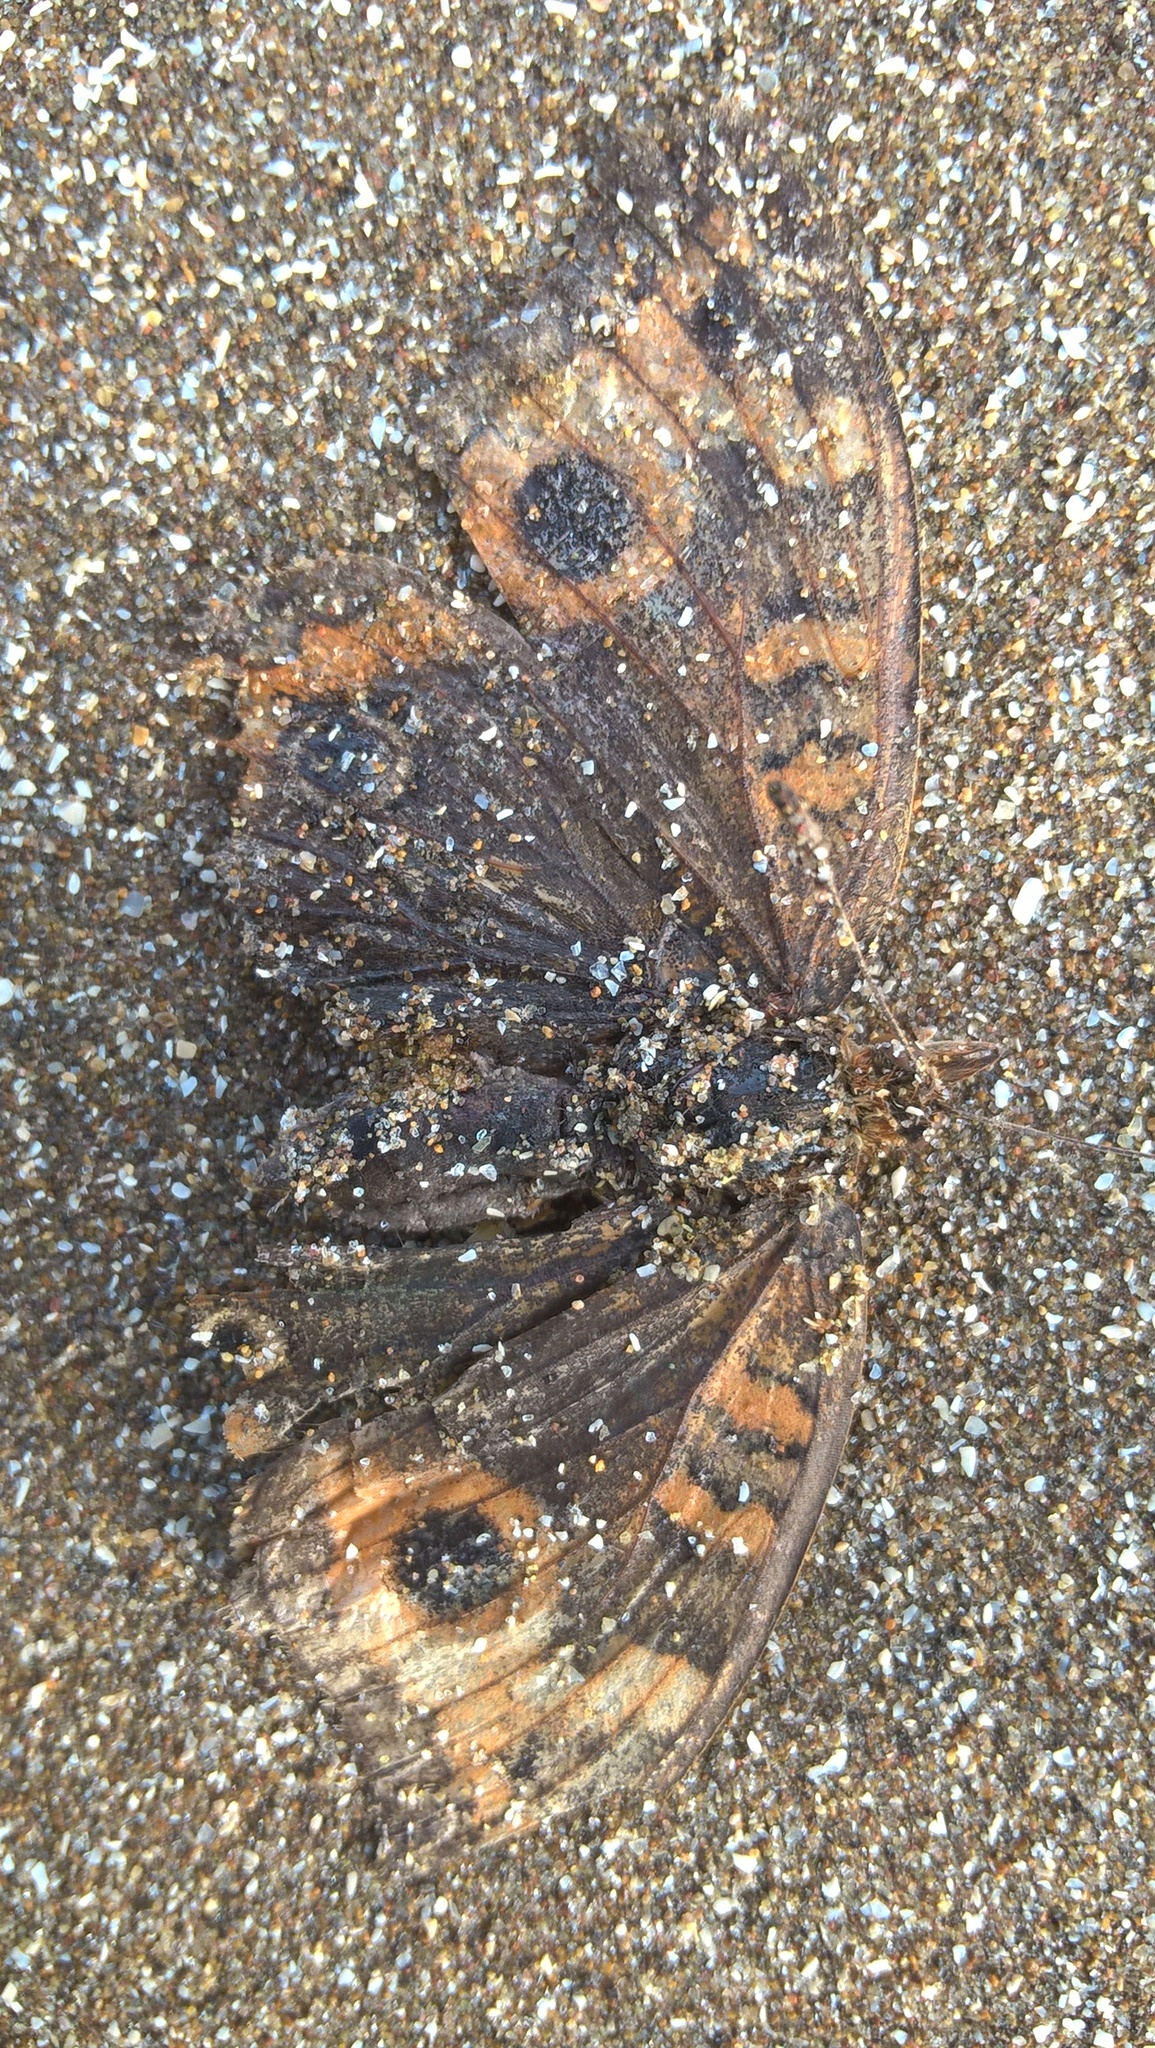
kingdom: Animalia
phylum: Arthropoda
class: Insecta
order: Lepidoptera
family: Nymphalidae
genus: Junonia
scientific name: Junonia lavinia
